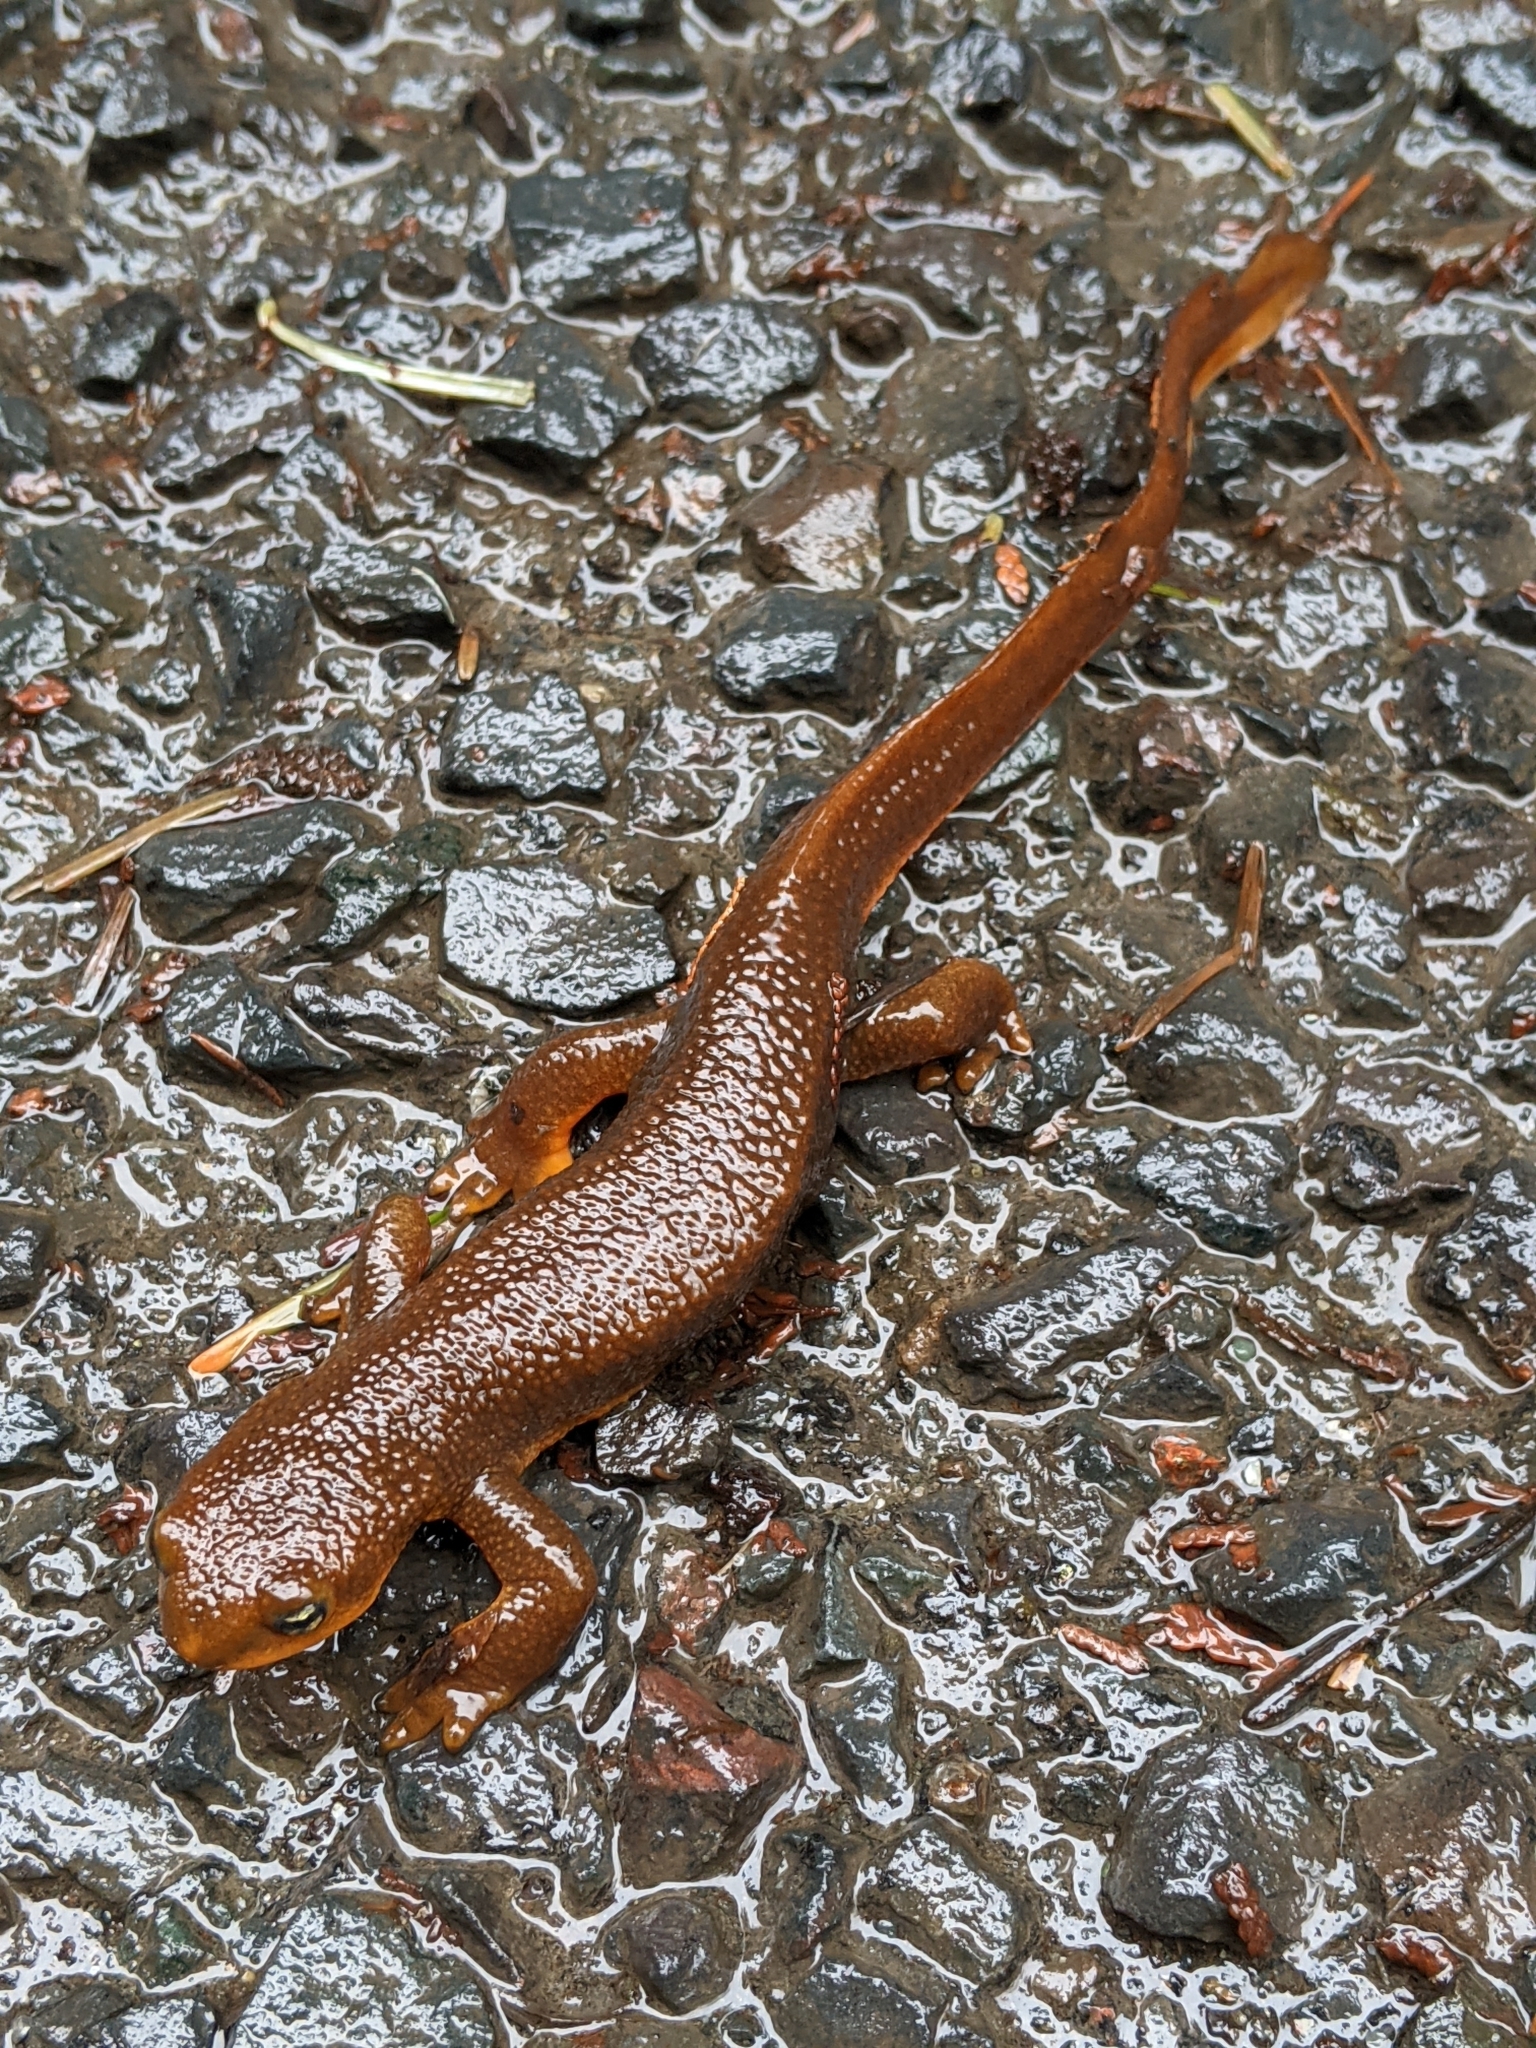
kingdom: Animalia
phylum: Chordata
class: Amphibia
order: Caudata
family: Salamandridae
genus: Taricha
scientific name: Taricha granulosa
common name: Roughskin newt
